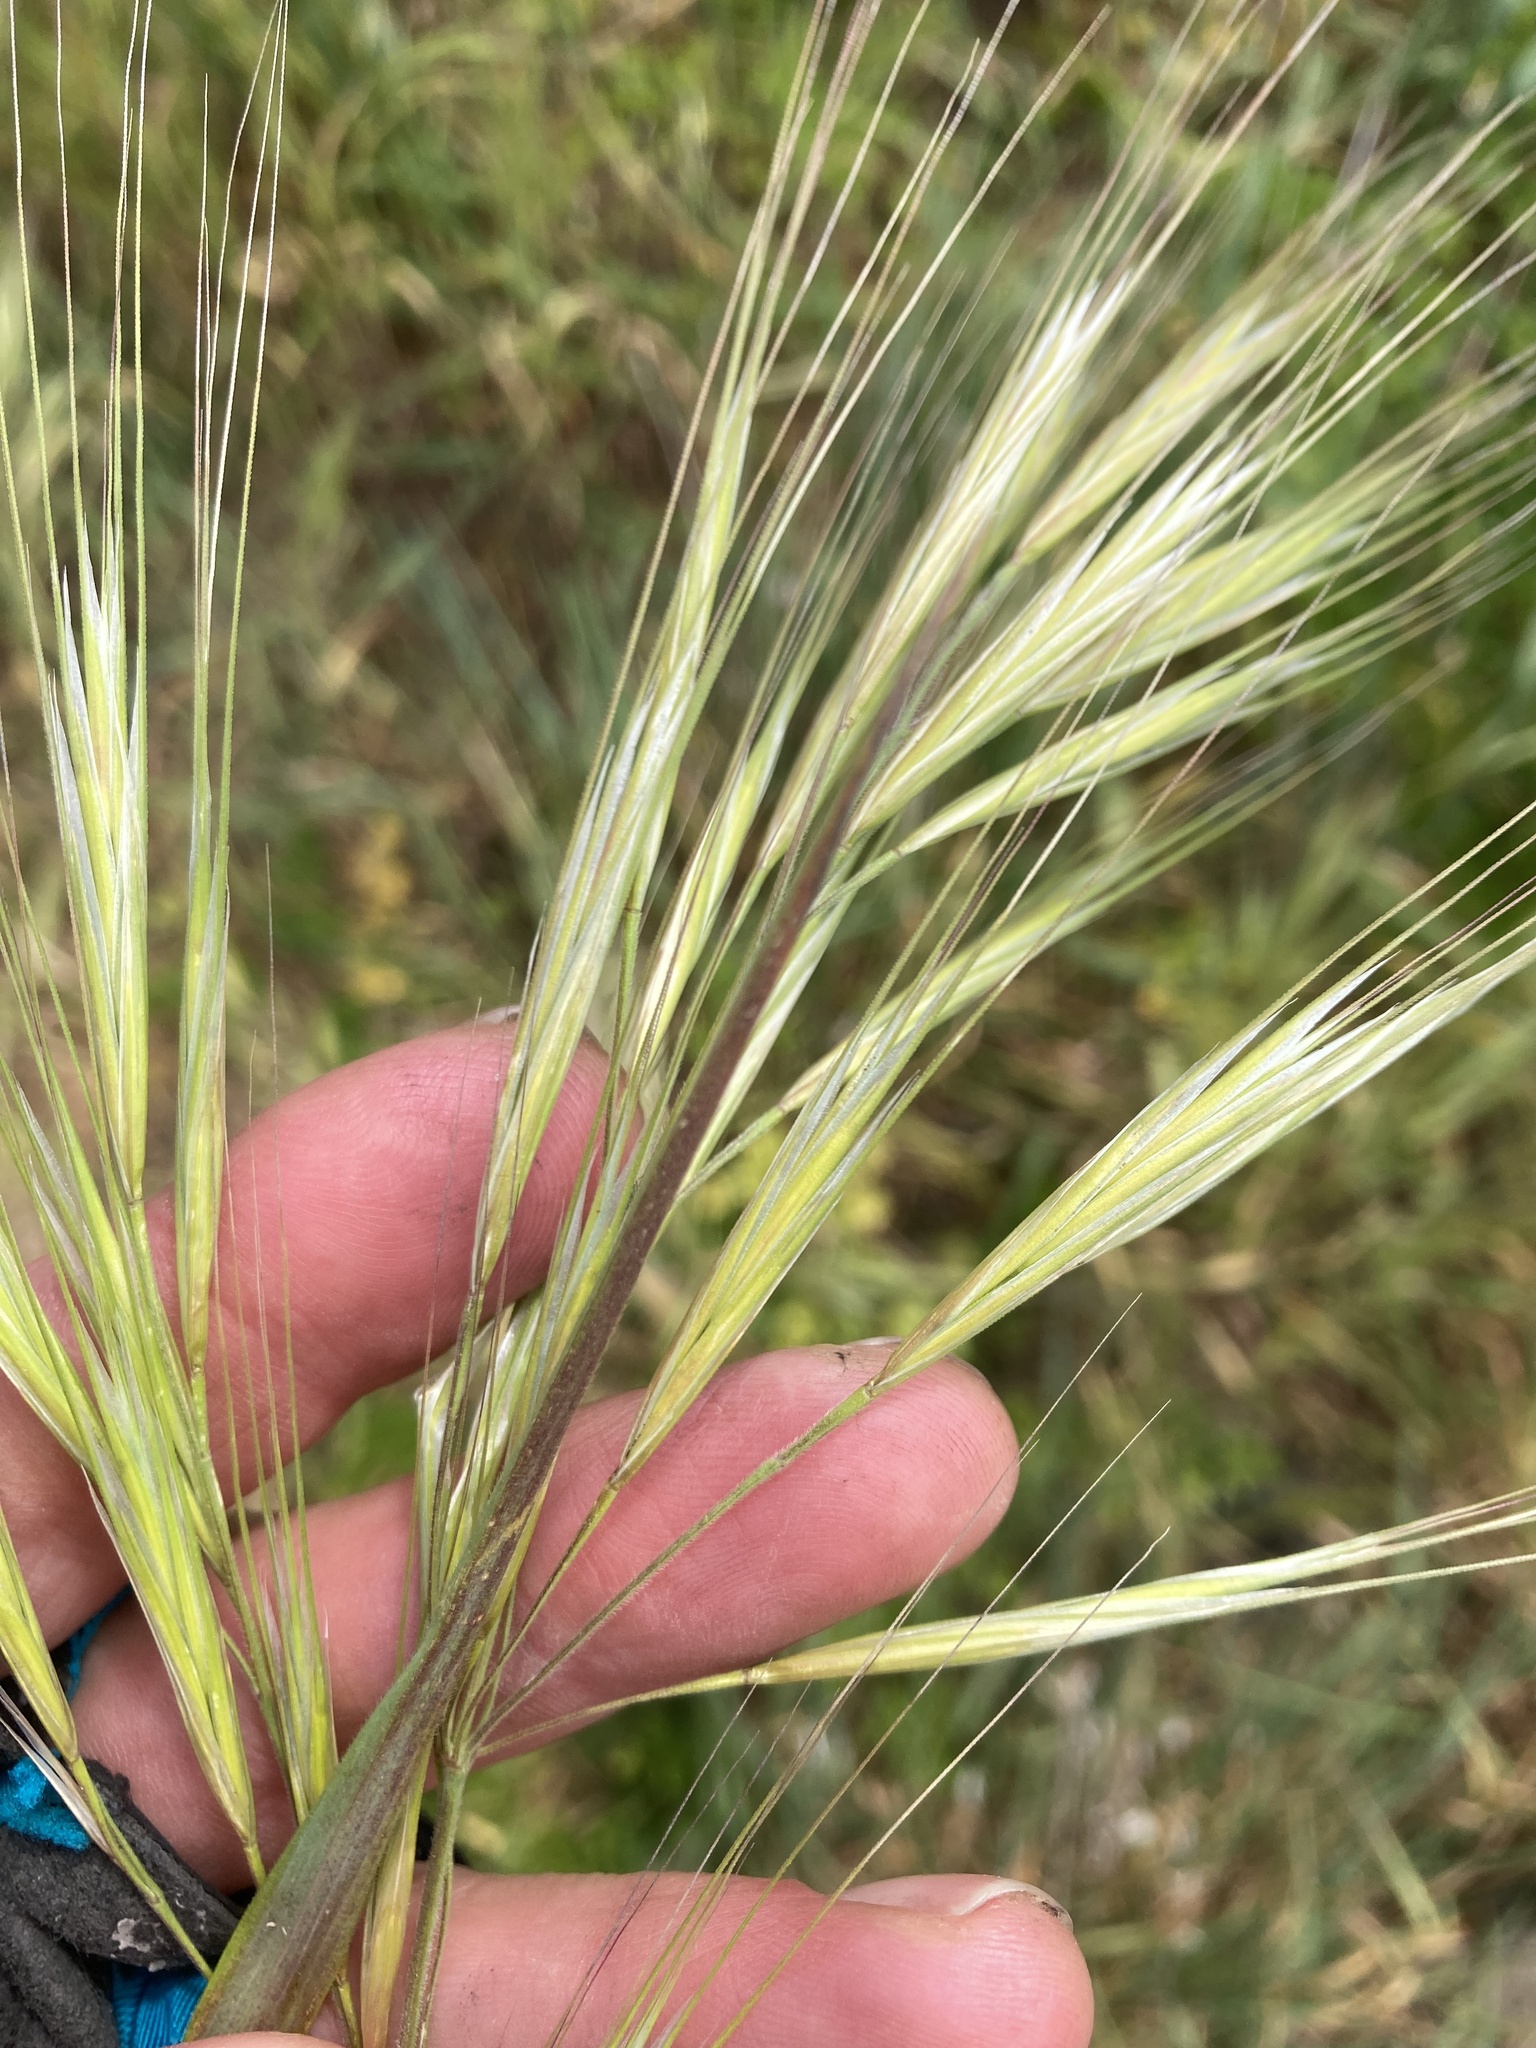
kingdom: Plantae
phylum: Tracheophyta
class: Liliopsida
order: Poales
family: Poaceae
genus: Bromus
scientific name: Bromus diandrus
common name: Ripgut brome
